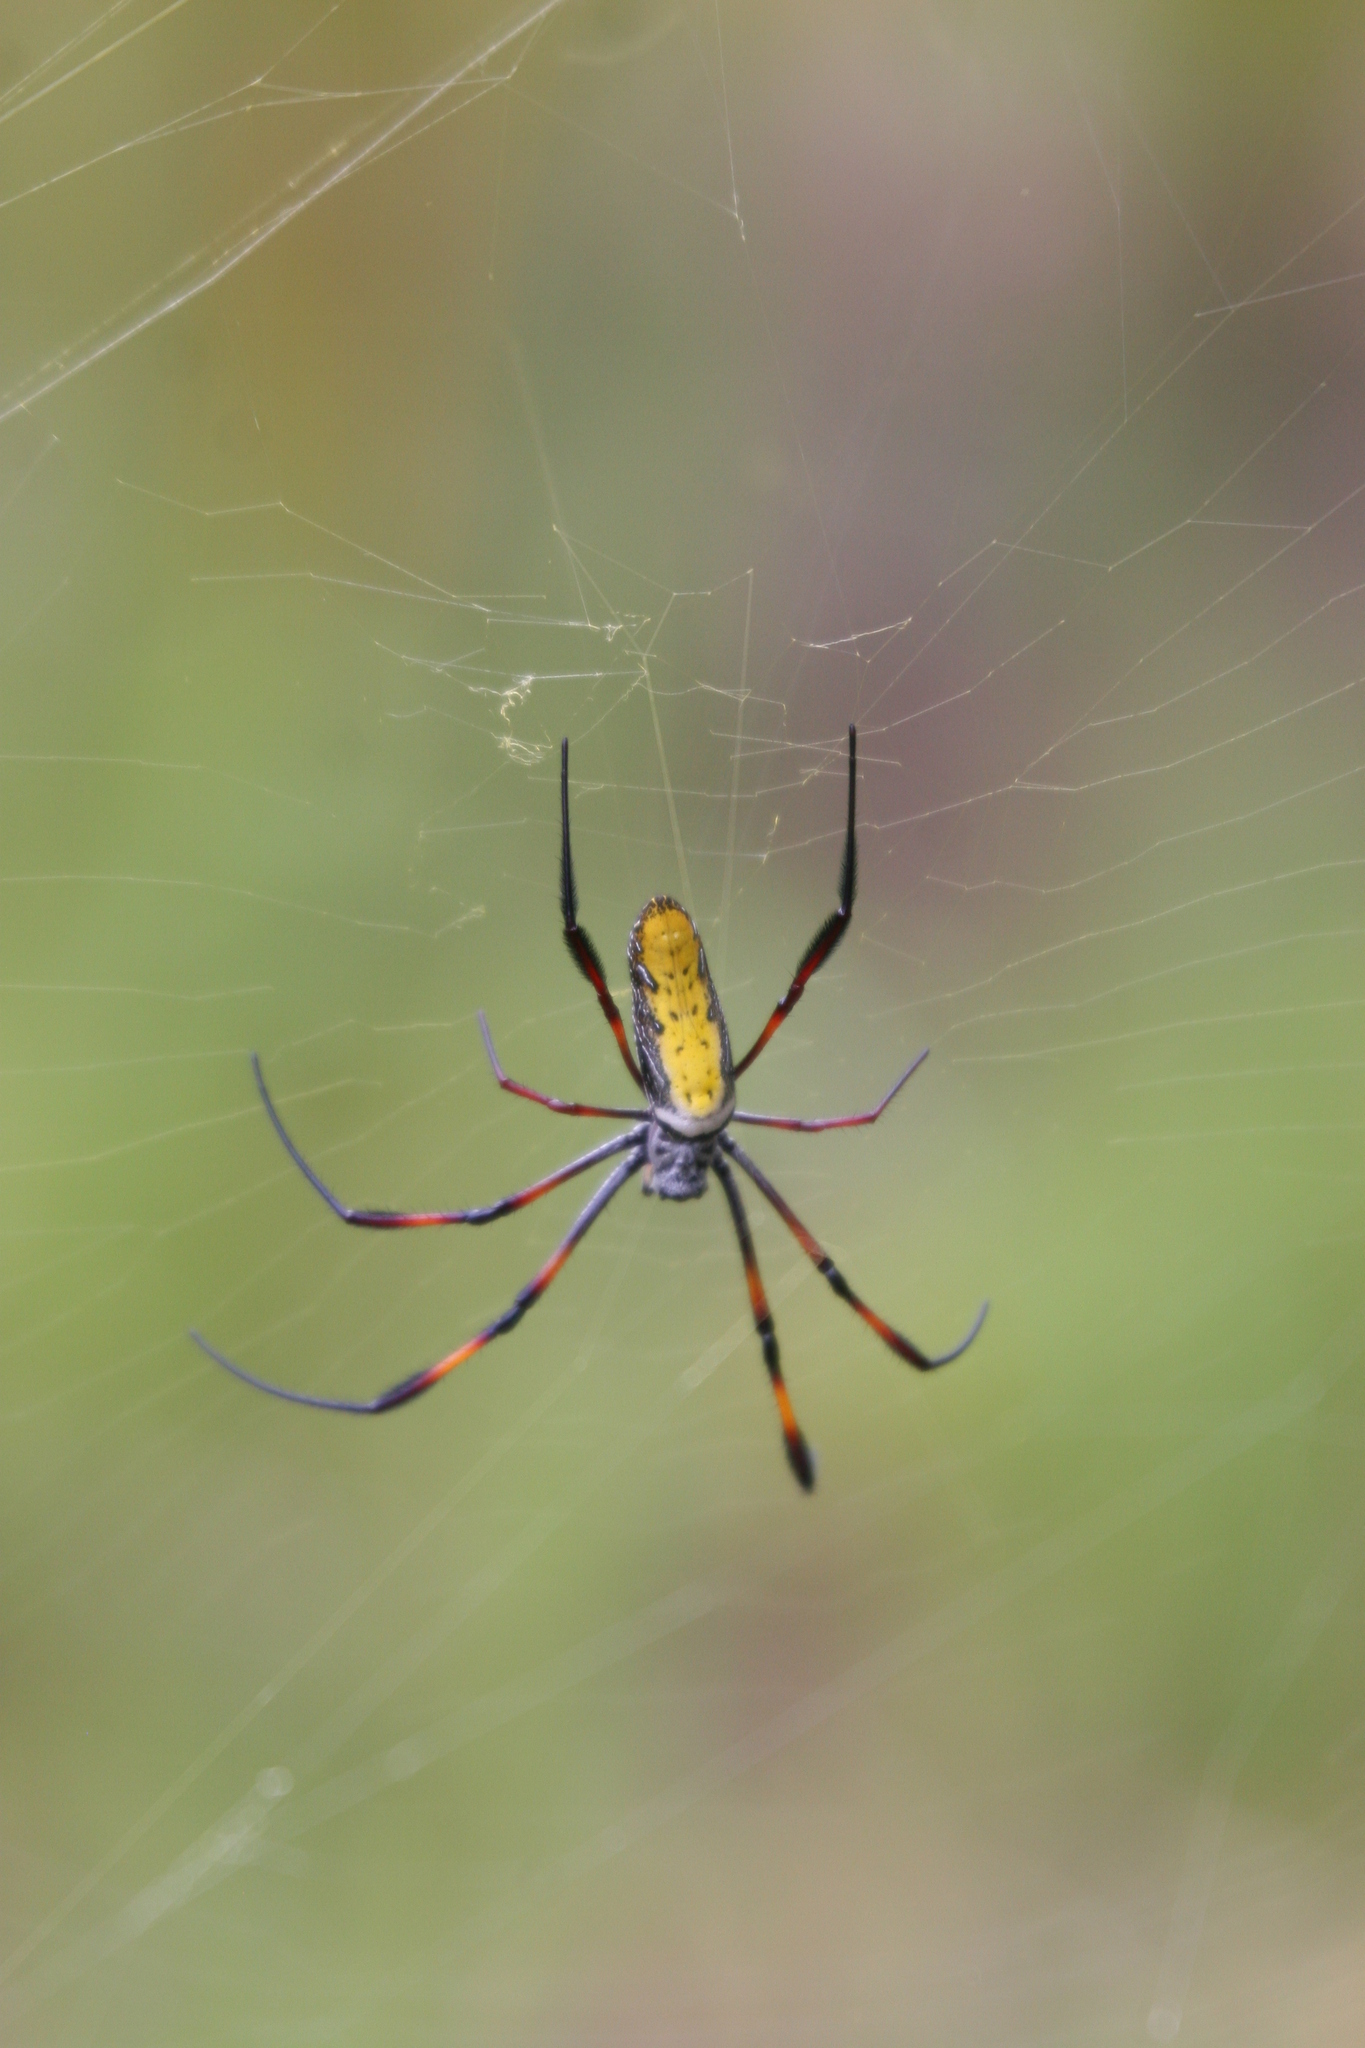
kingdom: Animalia
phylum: Arthropoda
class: Arachnida
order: Araneae
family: Araneidae
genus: Trichonephila
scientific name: Trichonephila inaurata
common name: Red-legged golden orb weaver
